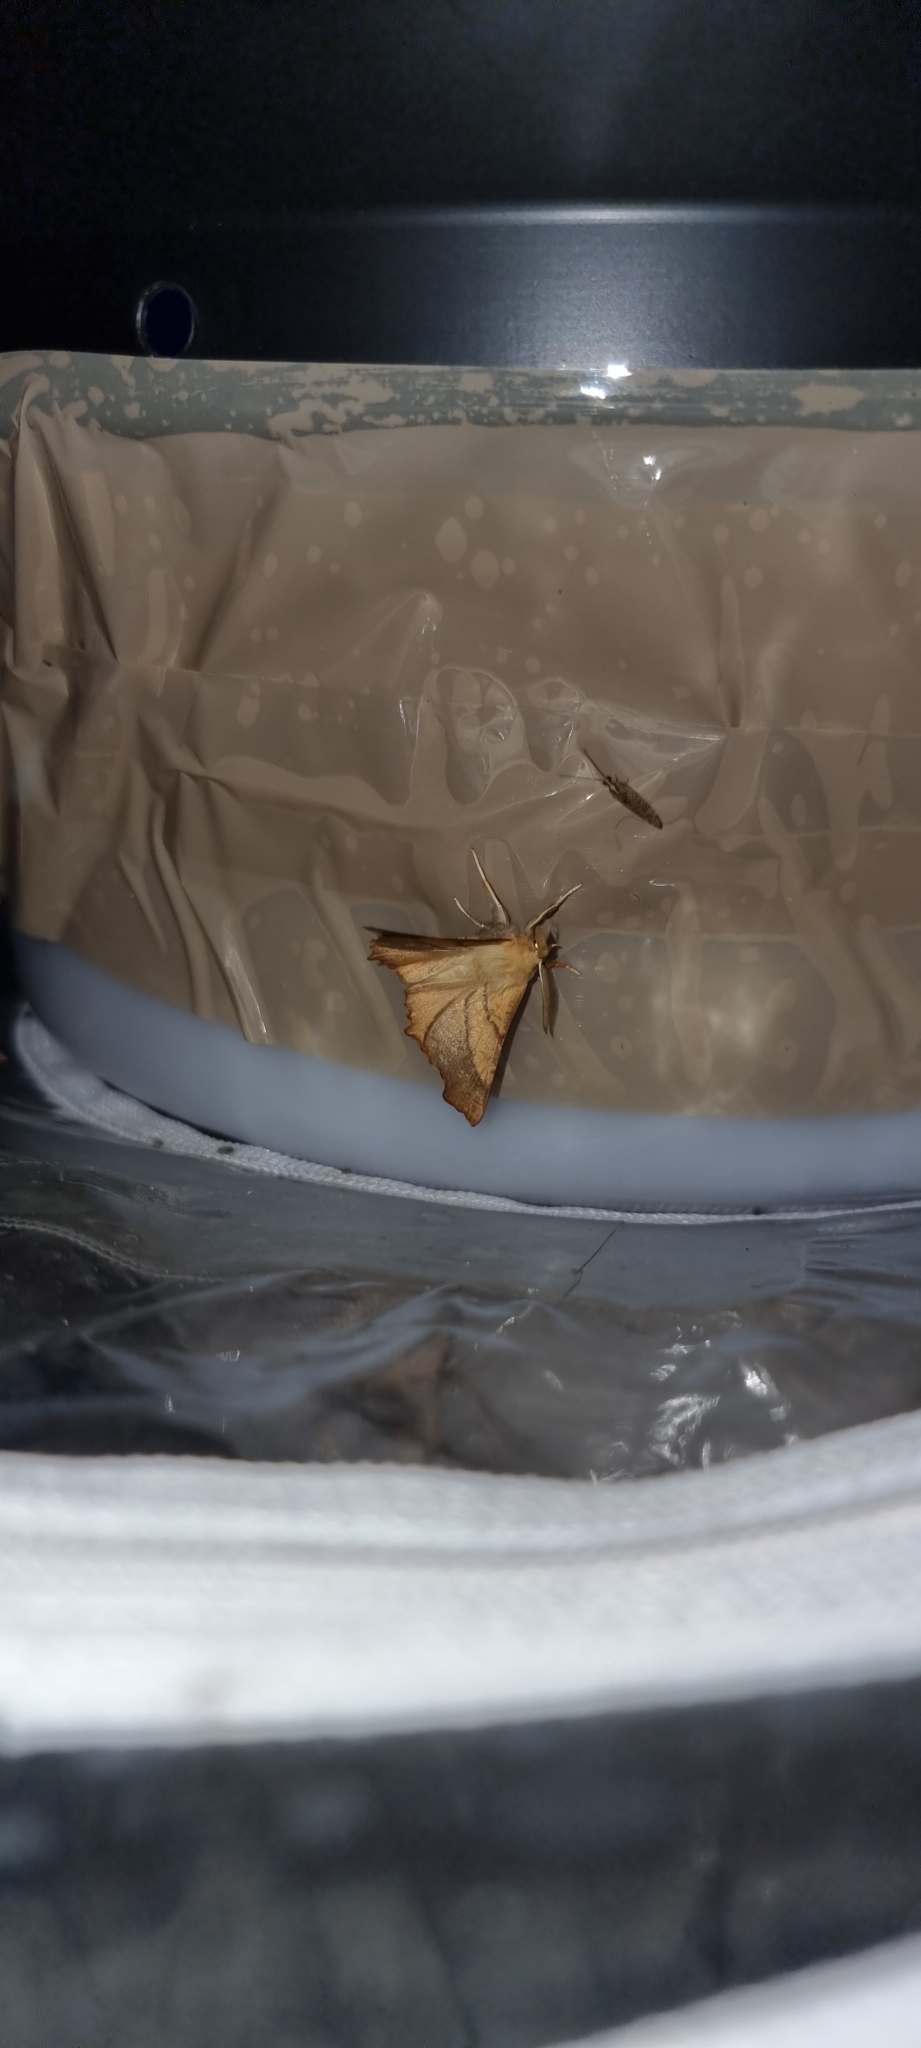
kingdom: Animalia
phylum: Arthropoda
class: Insecta
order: Lepidoptera
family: Geometridae
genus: Ennomos
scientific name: Ennomos fuscantaria
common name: Dusky thorn
